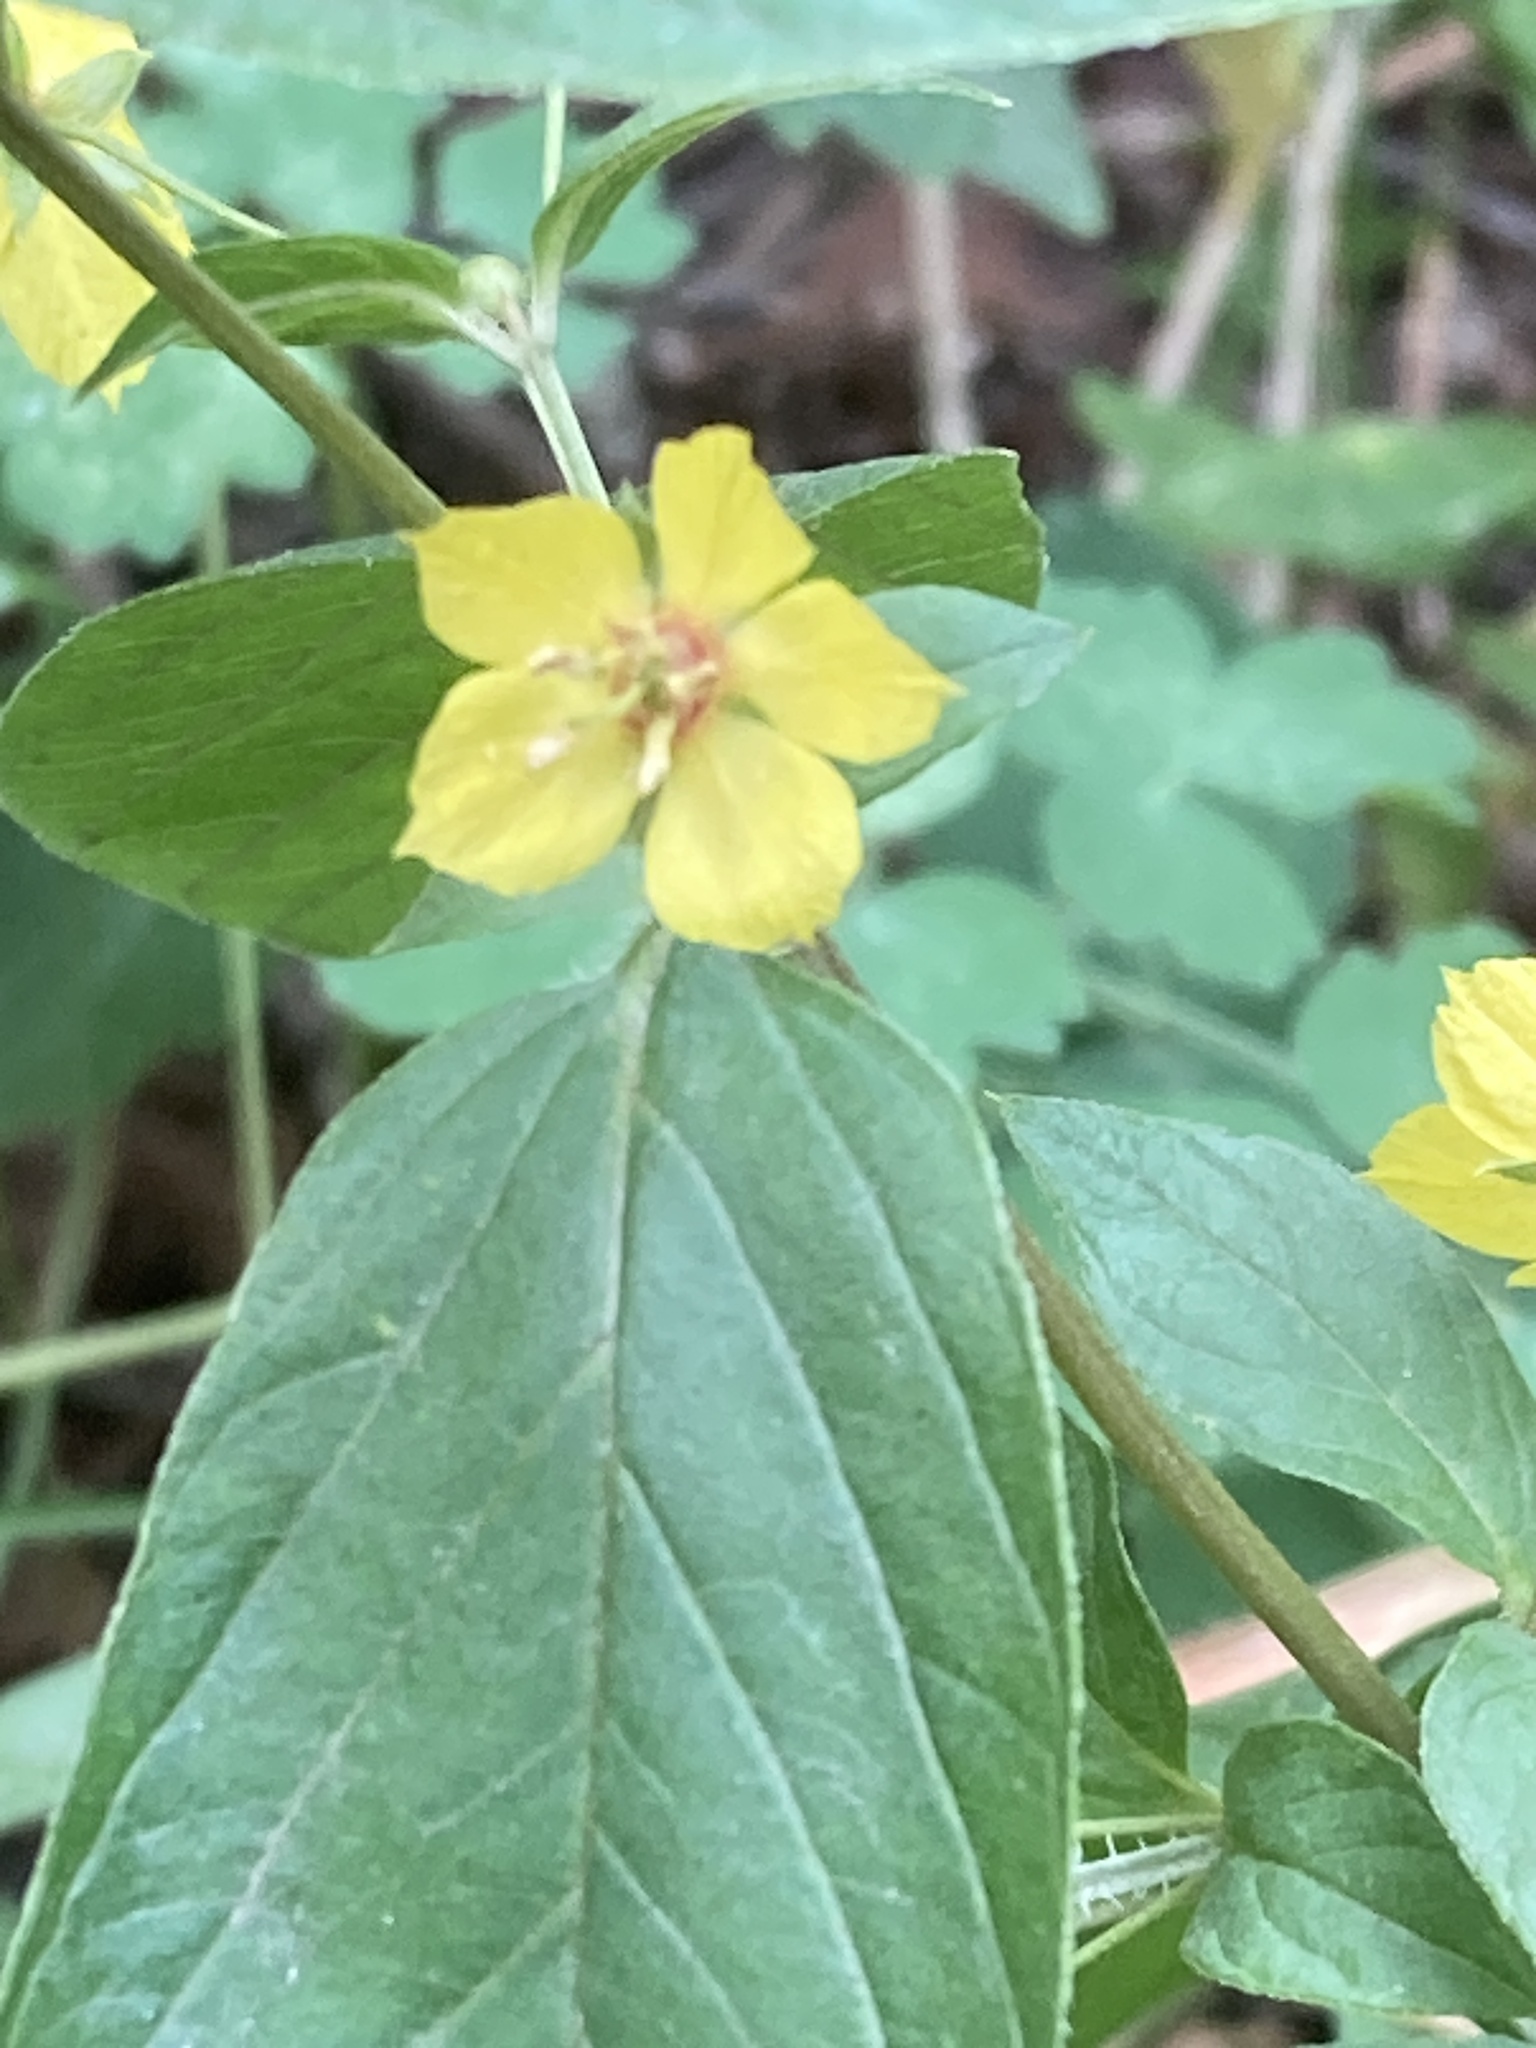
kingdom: Plantae
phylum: Tracheophyta
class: Magnoliopsida
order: Ericales
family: Primulaceae
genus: Lysimachia
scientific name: Lysimachia ciliata
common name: Fringed loosestrife
